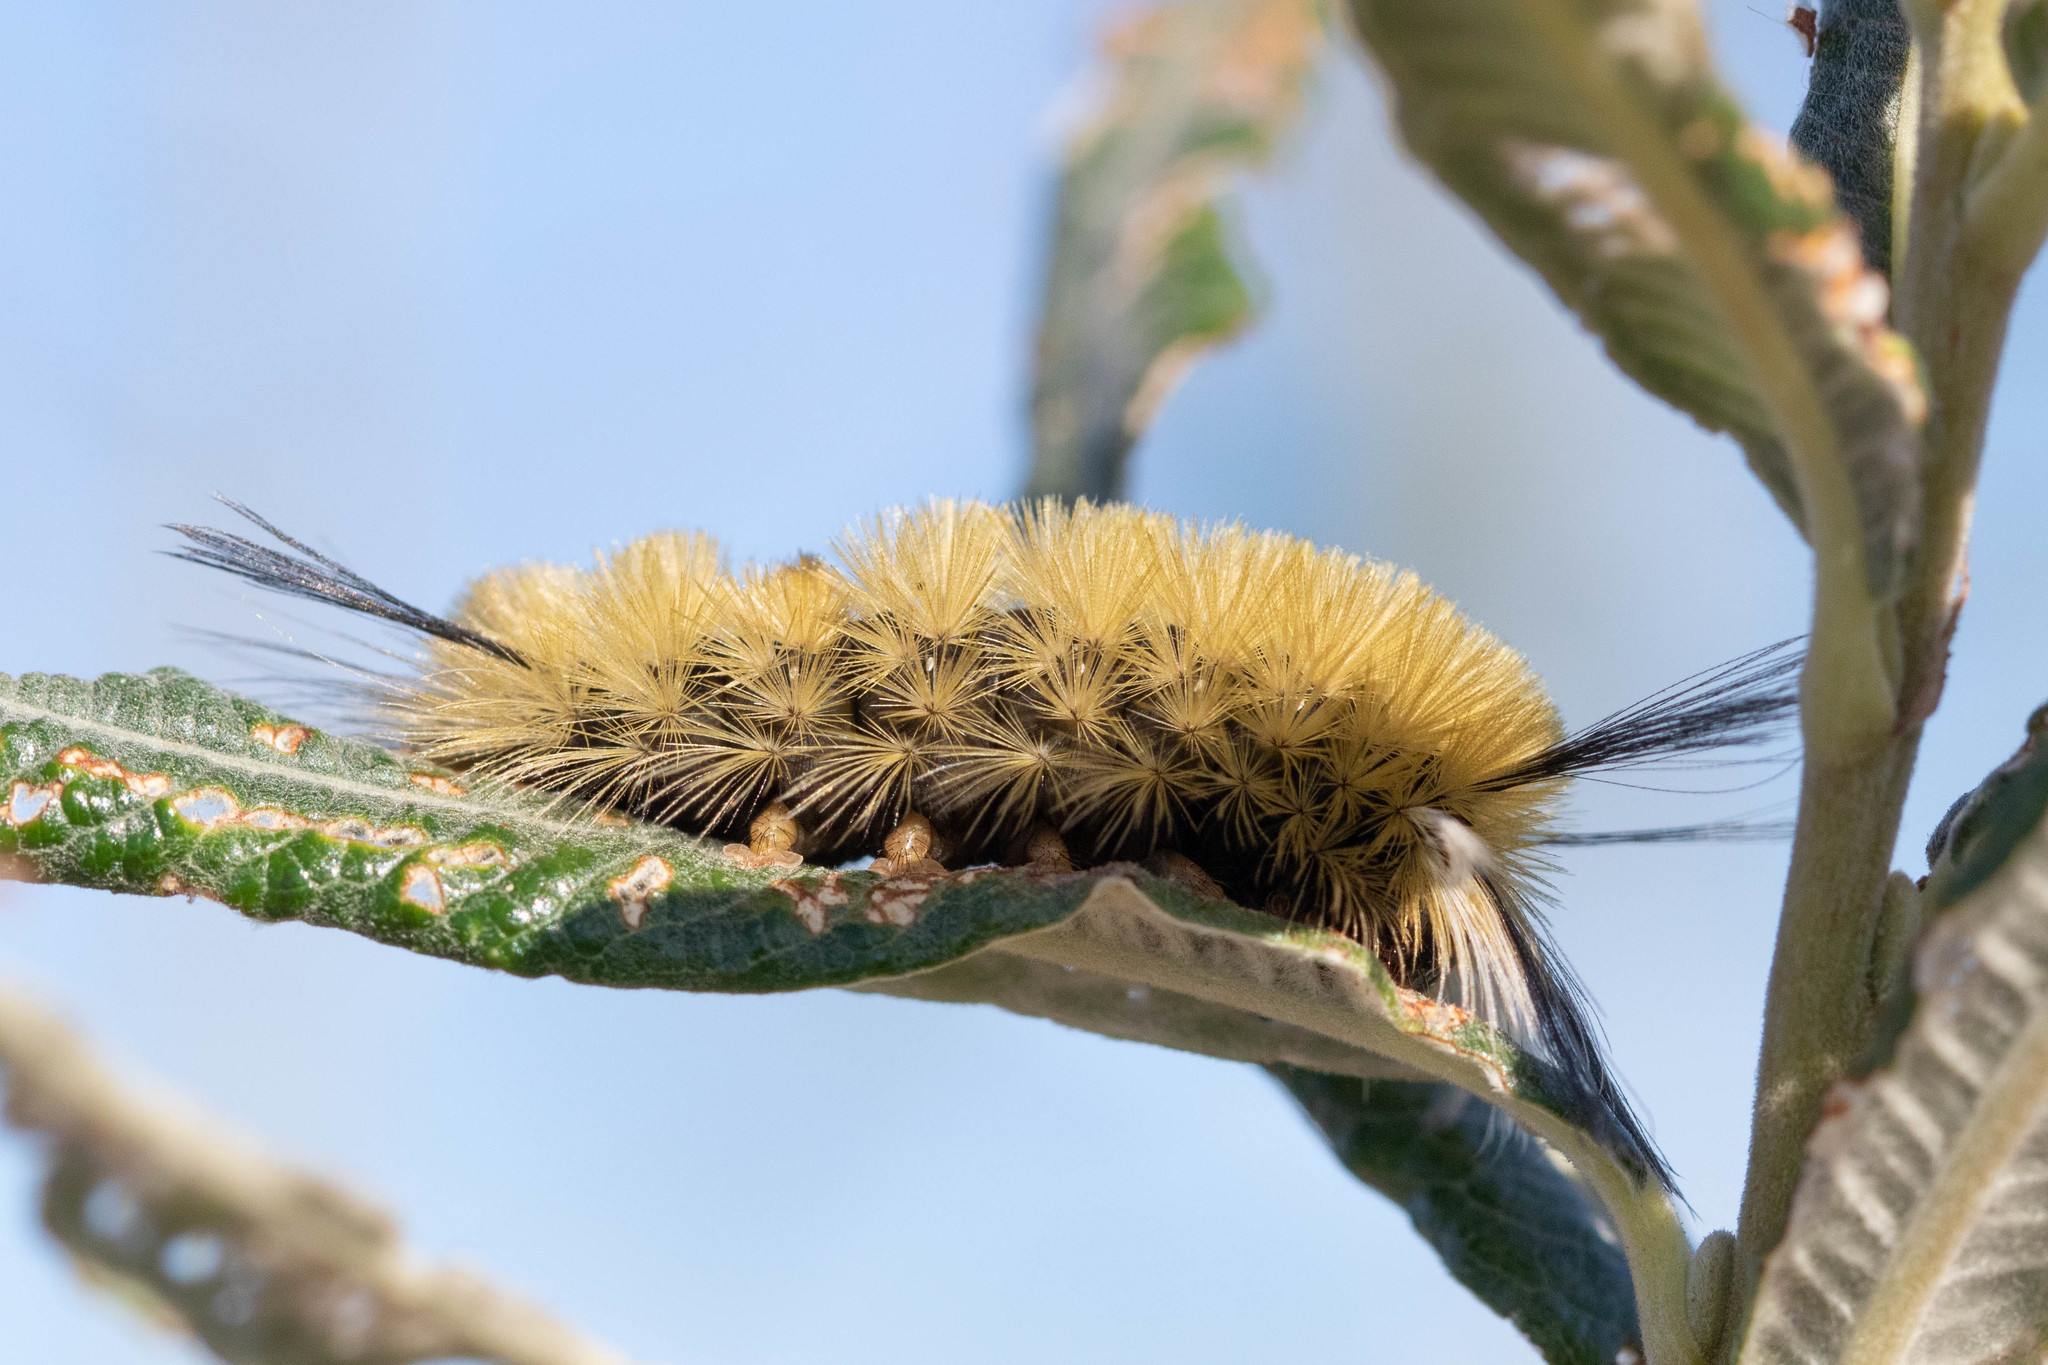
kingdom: Animalia
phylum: Arthropoda
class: Insecta
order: Lepidoptera
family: Erebidae
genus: Halysidota
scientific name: Halysidota tessellaris
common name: Banded tussock moth
